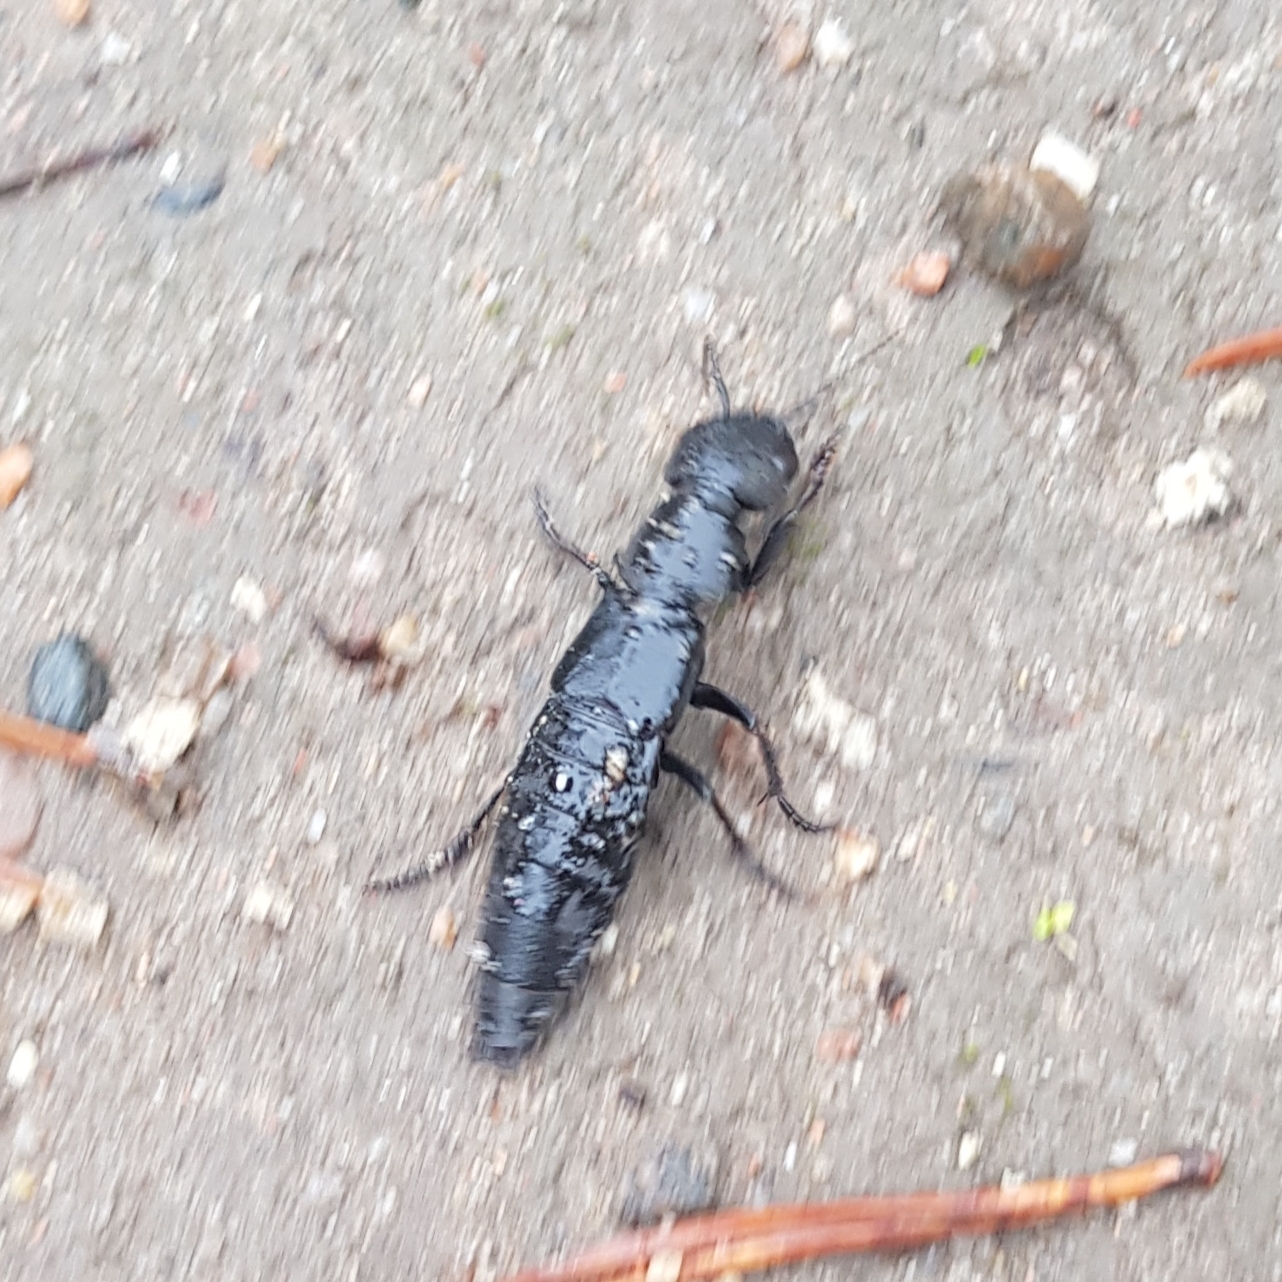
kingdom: Animalia
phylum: Arthropoda
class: Insecta
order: Coleoptera
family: Staphylinidae
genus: Ocypus
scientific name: Ocypus olens
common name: Devil's coach-horse
